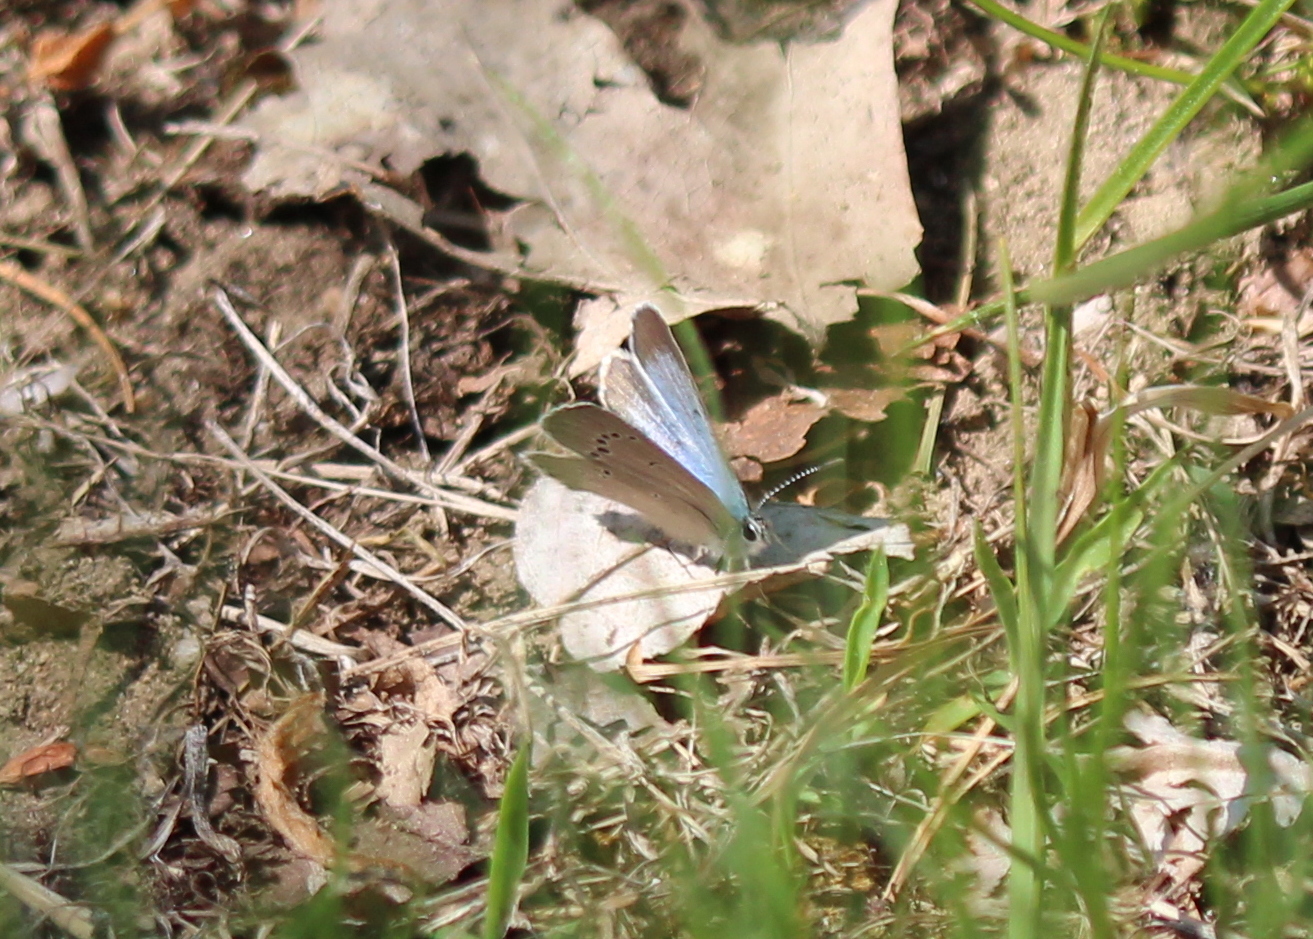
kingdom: Animalia
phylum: Arthropoda
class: Insecta
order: Lepidoptera
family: Lycaenidae
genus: Glaucopsyche
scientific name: Glaucopsyche lygdamus
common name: Silvery blue
